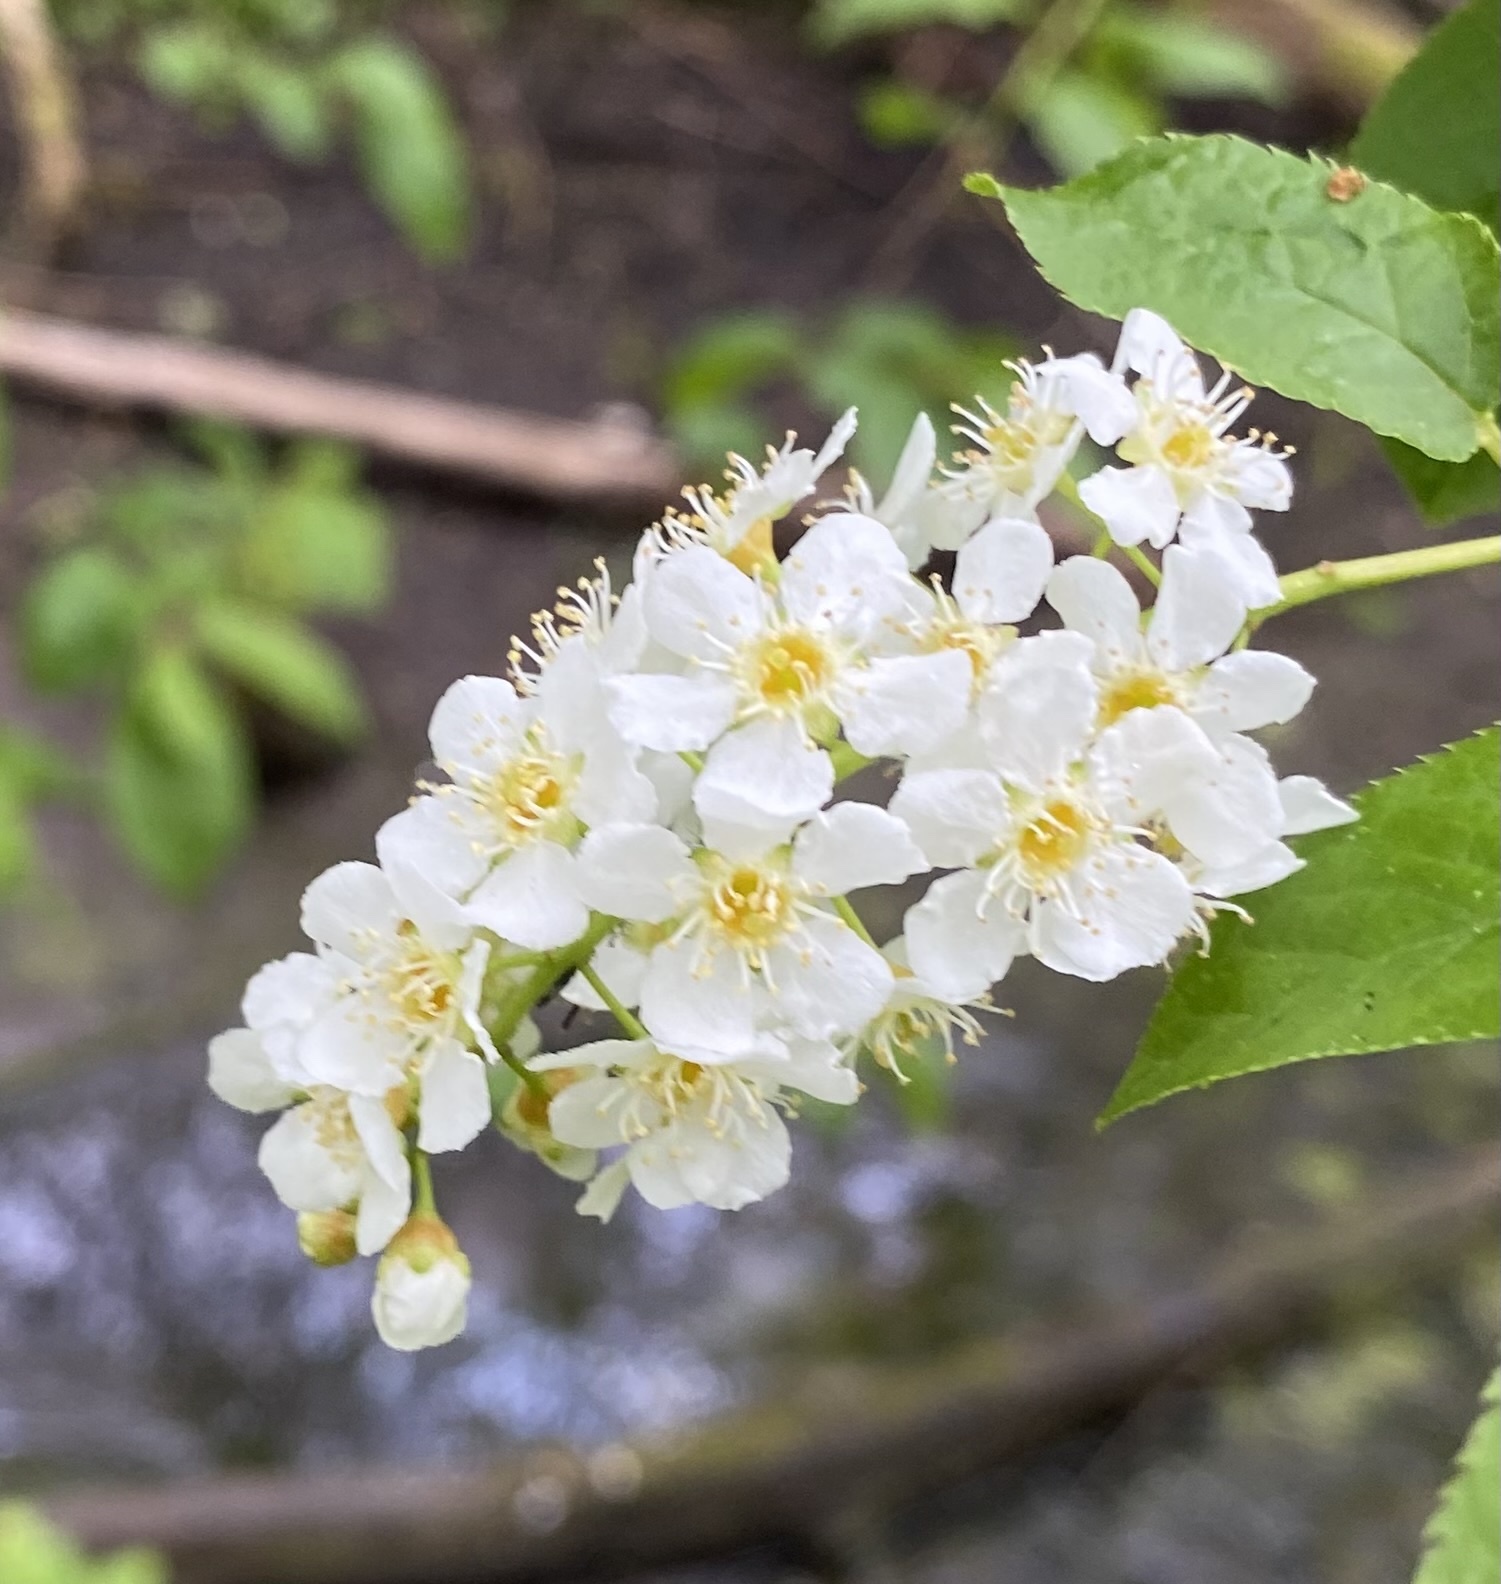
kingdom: Plantae
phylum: Tracheophyta
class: Magnoliopsida
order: Rosales
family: Rosaceae
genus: Prunus
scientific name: Prunus padus
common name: Bird cherry
